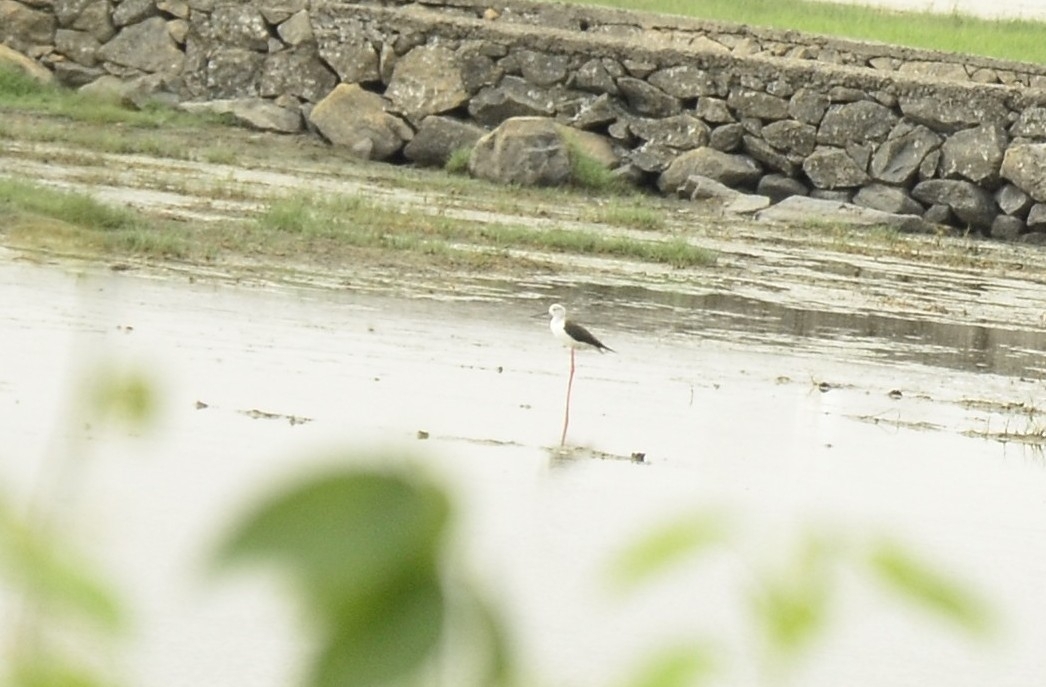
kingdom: Animalia
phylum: Chordata
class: Aves
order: Charadriiformes
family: Recurvirostridae
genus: Himantopus
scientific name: Himantopus himantopus
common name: Black-winged stilt
